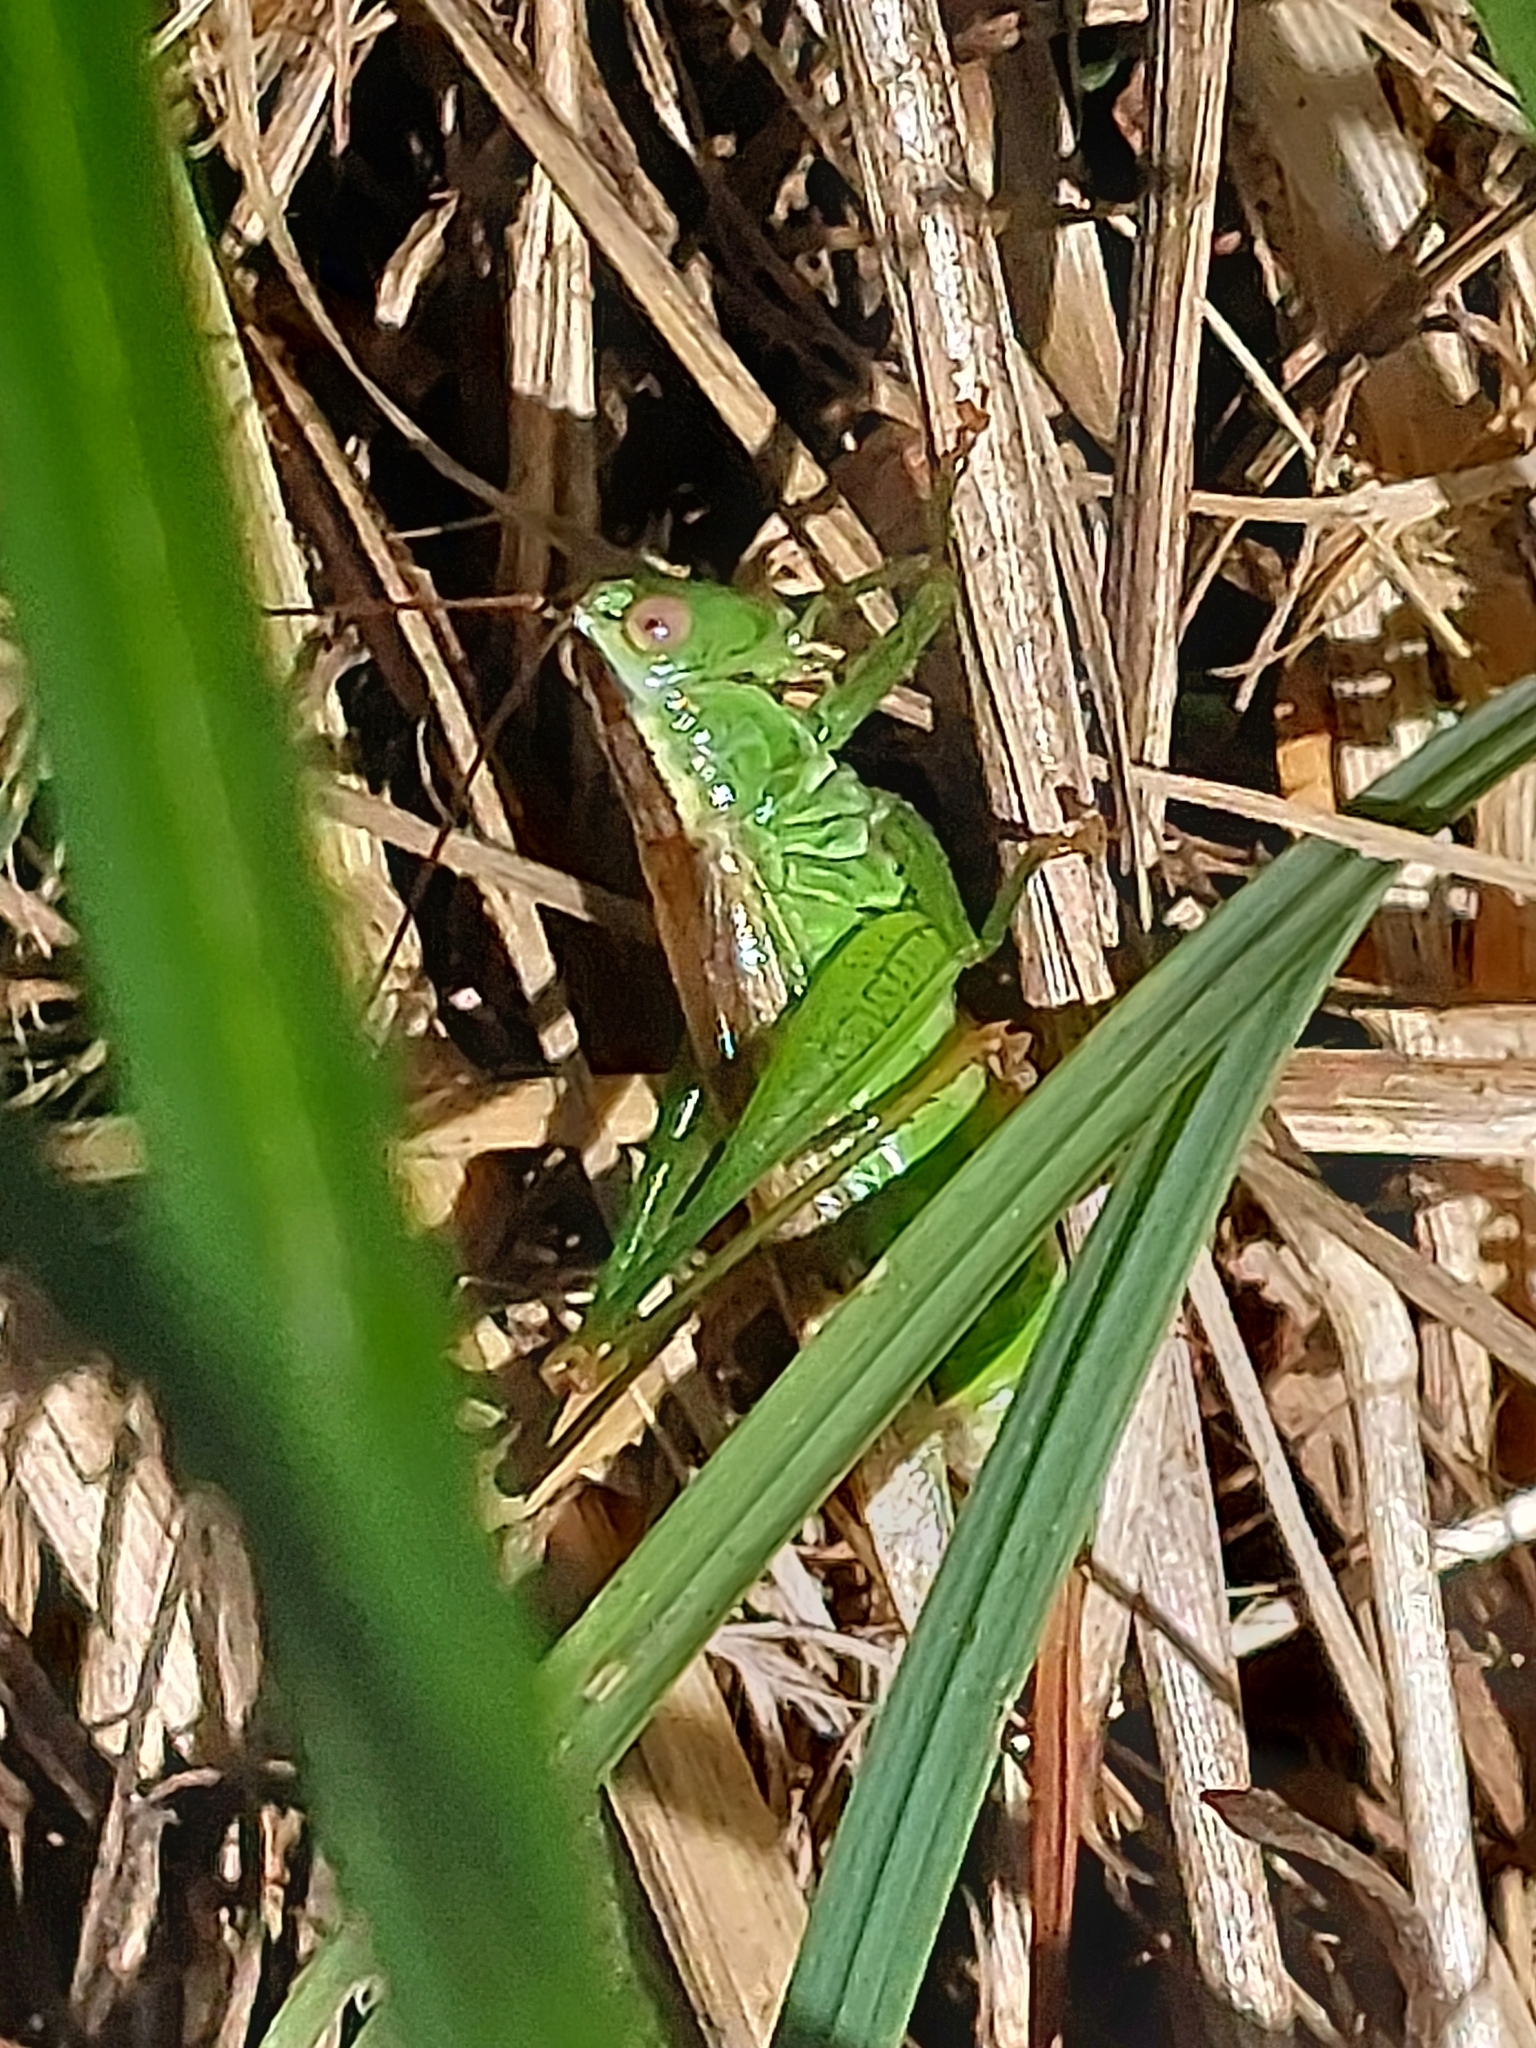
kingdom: Animalia
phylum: Arthropoda
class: Insecta
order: Orthoptera
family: Tettigoniidae
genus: Conocephalus
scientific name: Conocephalus fuscus
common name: Long-winged conehead
